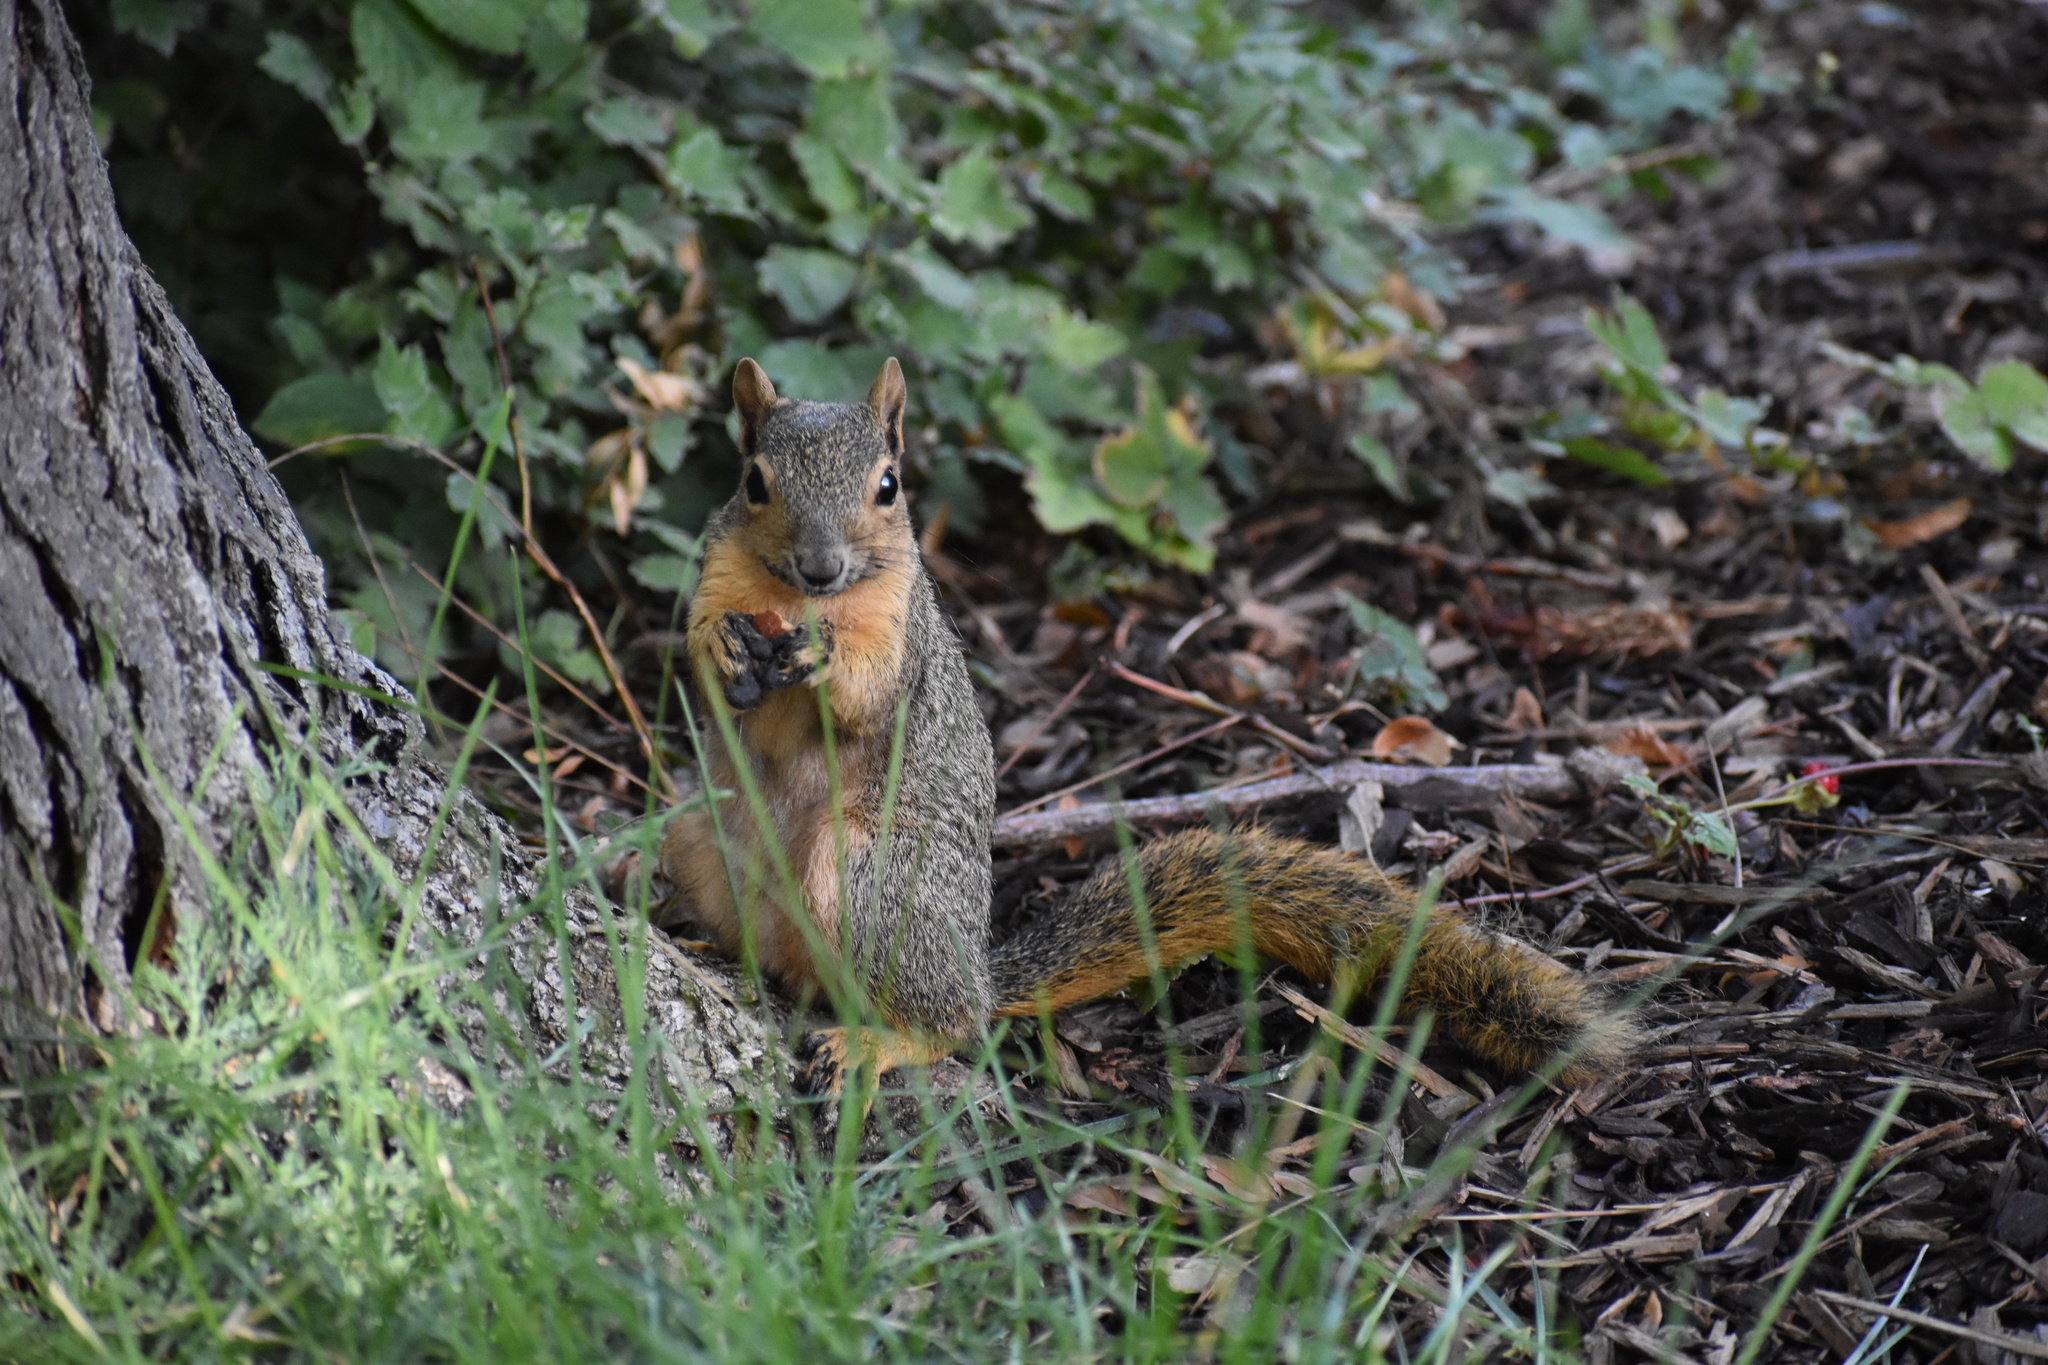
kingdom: Animalia
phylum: Chordata
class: Mammalia
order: Rodentia
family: Sciuridae
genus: Sciurus
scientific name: Sciurus niger
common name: Fox squirrel
